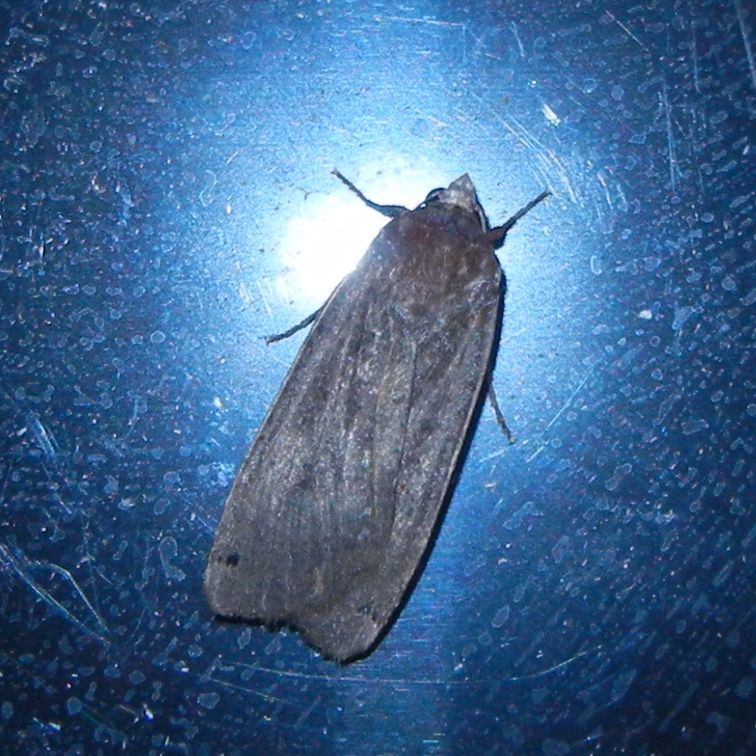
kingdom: Animalia
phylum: Arthropoda
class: Insecta
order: Lepidoptera
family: Noctuidae
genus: Noctua
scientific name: Noctua pronuba
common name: Large yellow underwing
